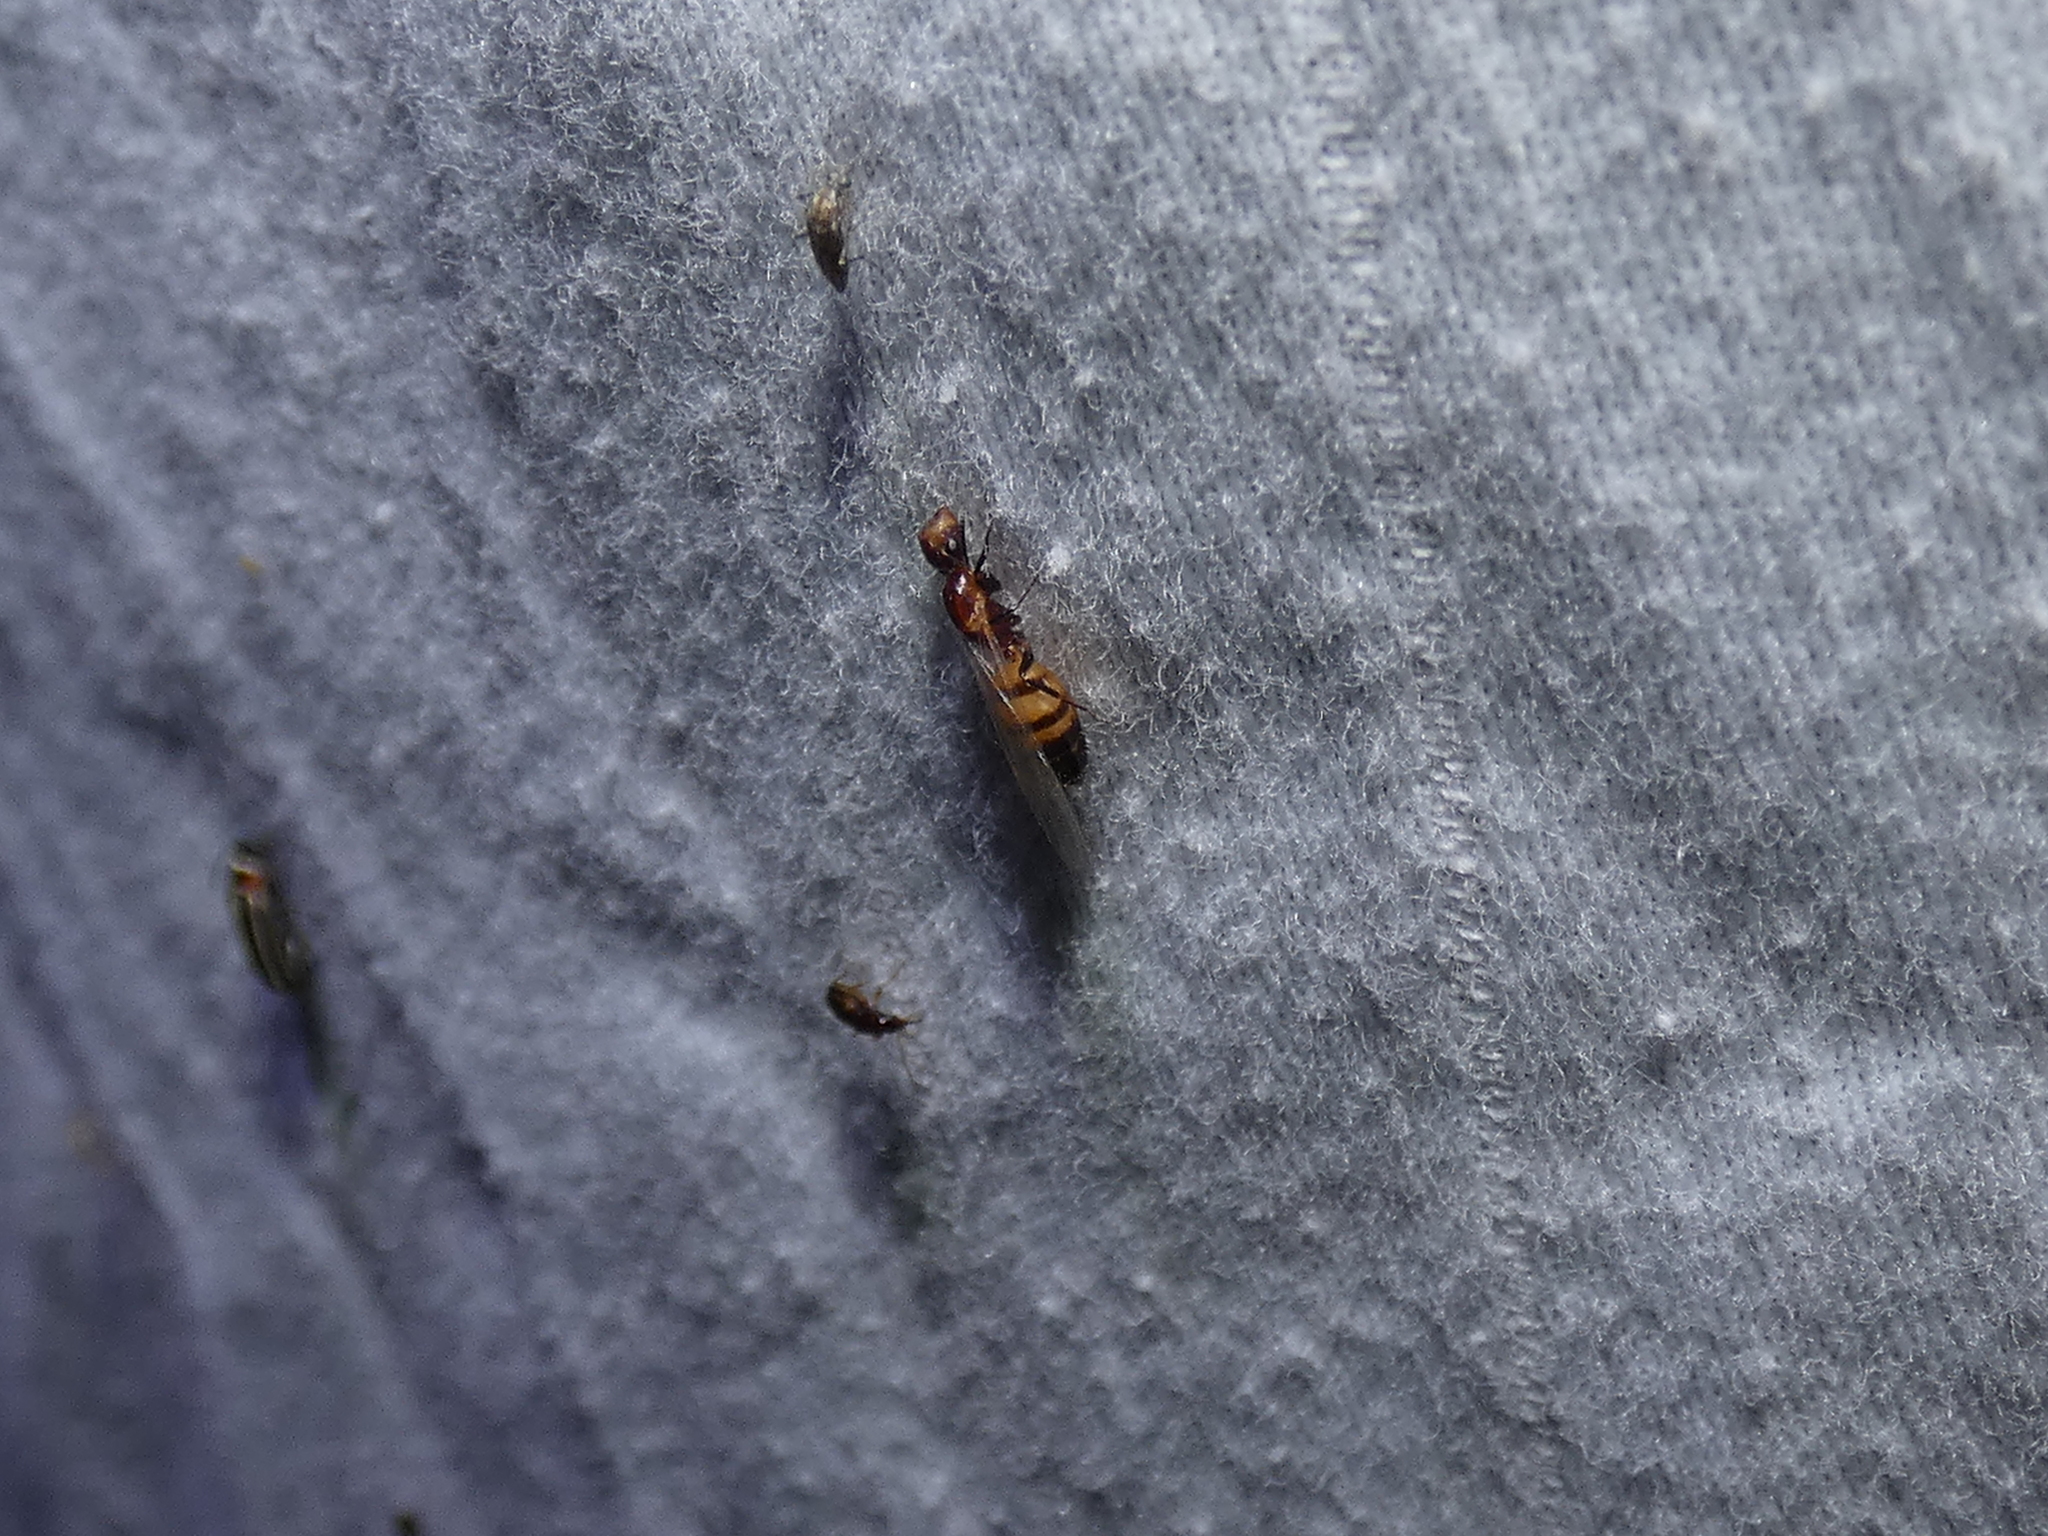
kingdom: Animalia
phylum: Arthropoda
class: Insecta
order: Hymenoptera
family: Formicidae
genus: Colobopsis
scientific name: Colobopsis impressa
